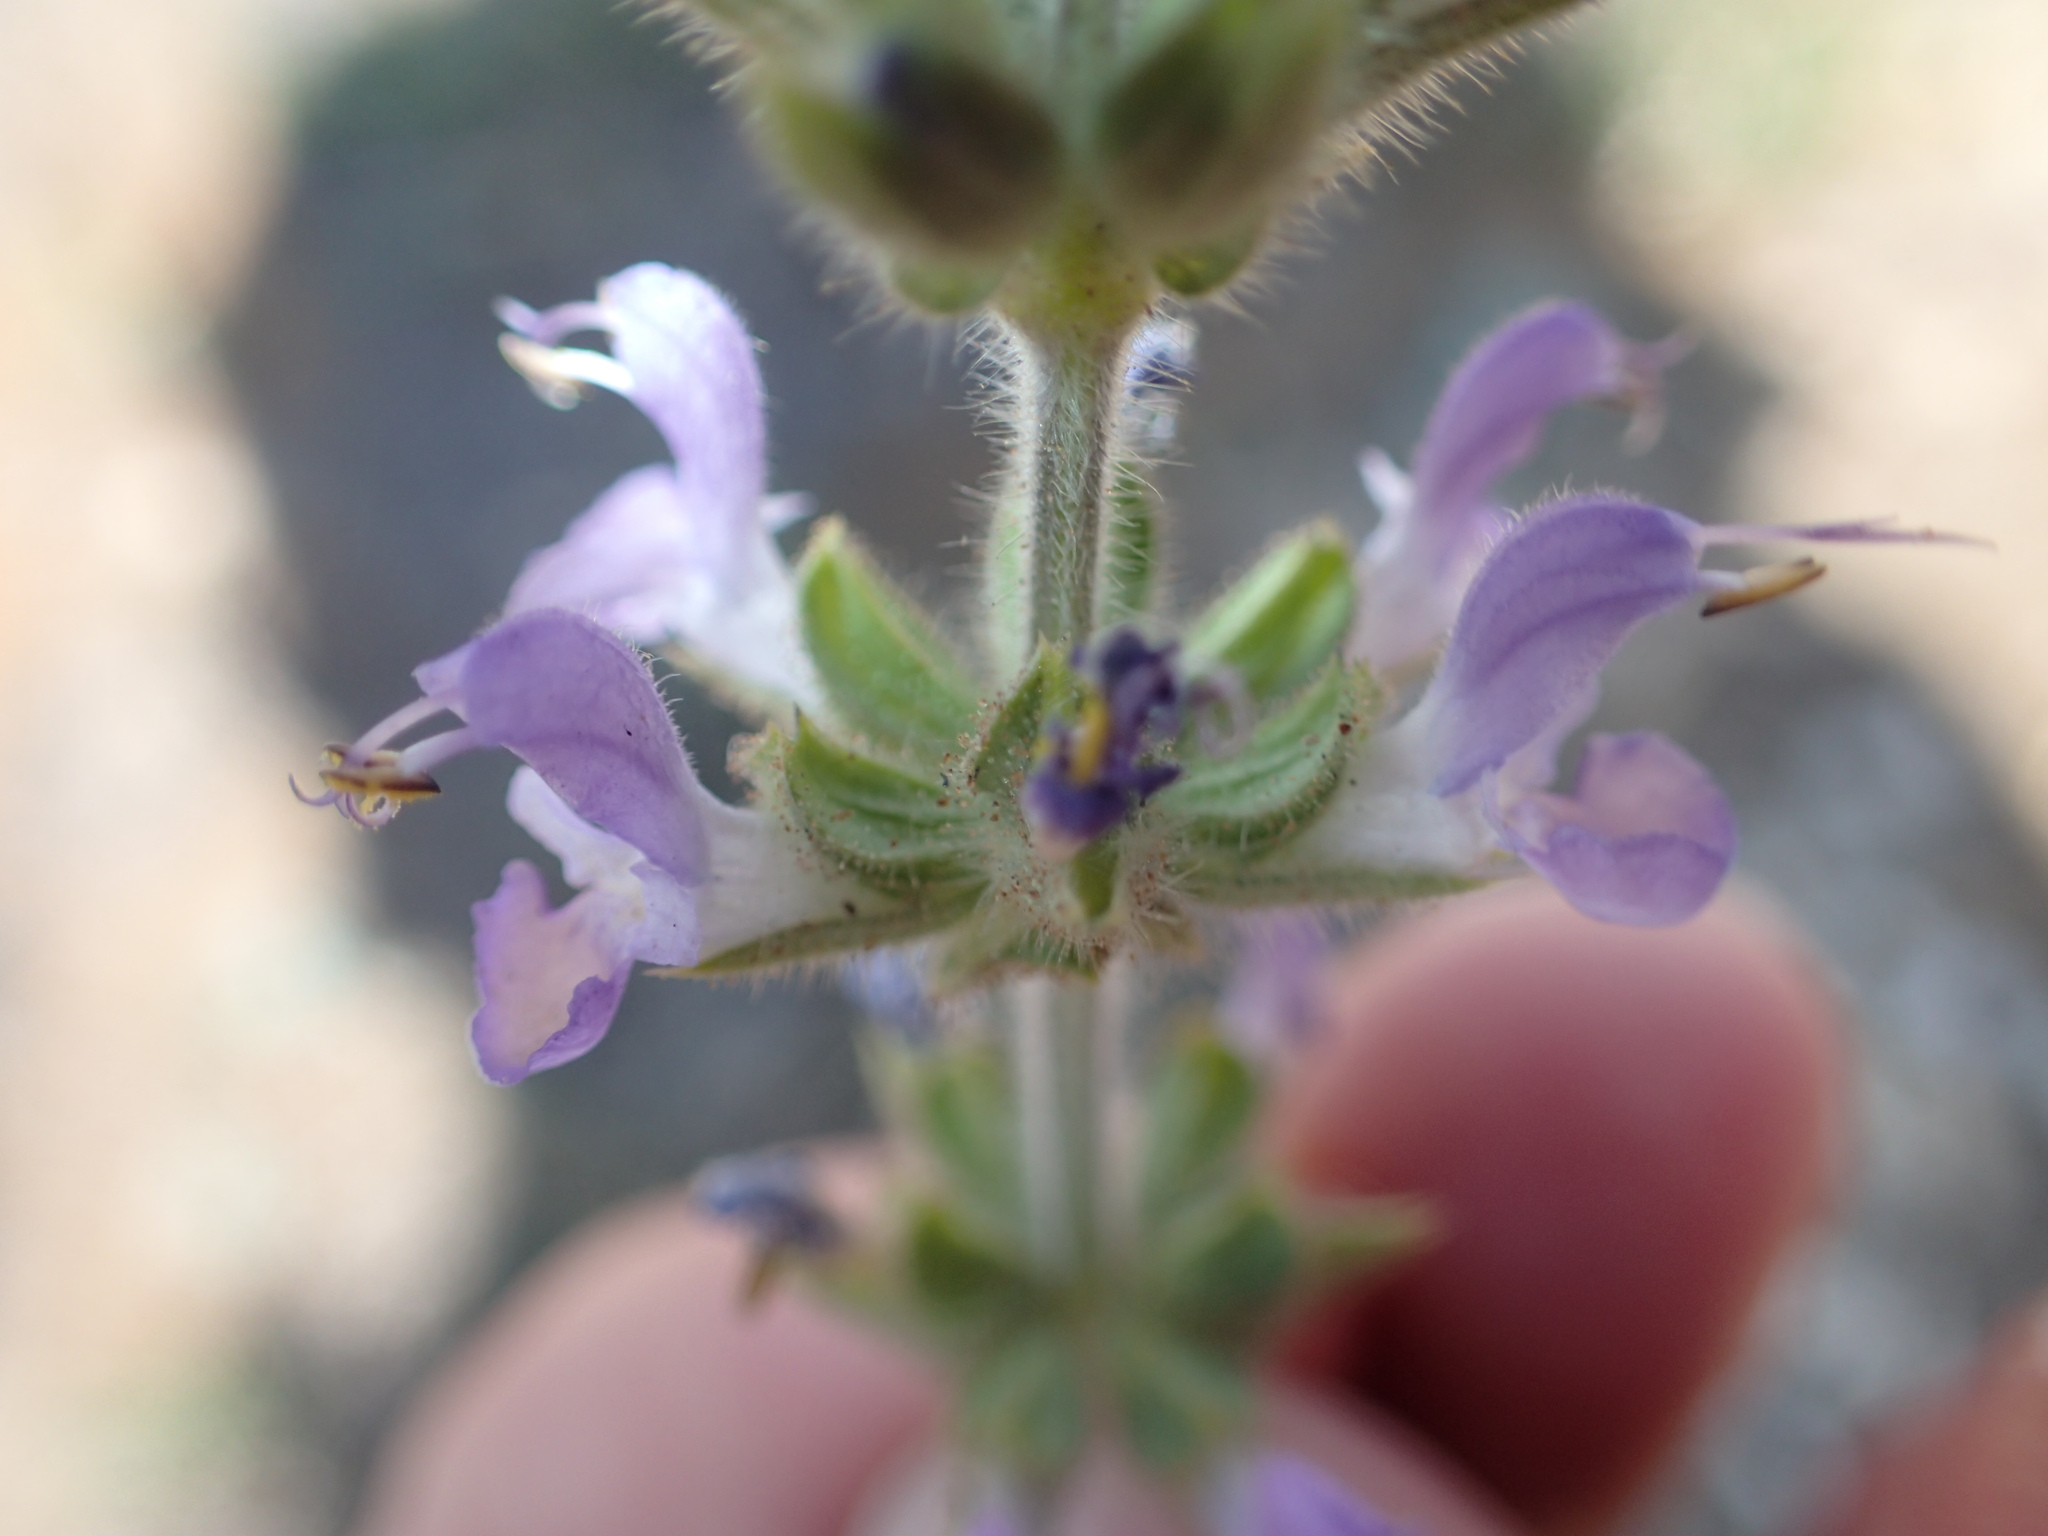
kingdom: Plantae
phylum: Tracheophyta
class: Magnoliopsida
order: Lamiales
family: Lamiaceae
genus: Salvia
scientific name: Salvia verbenaca
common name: Wild clary
